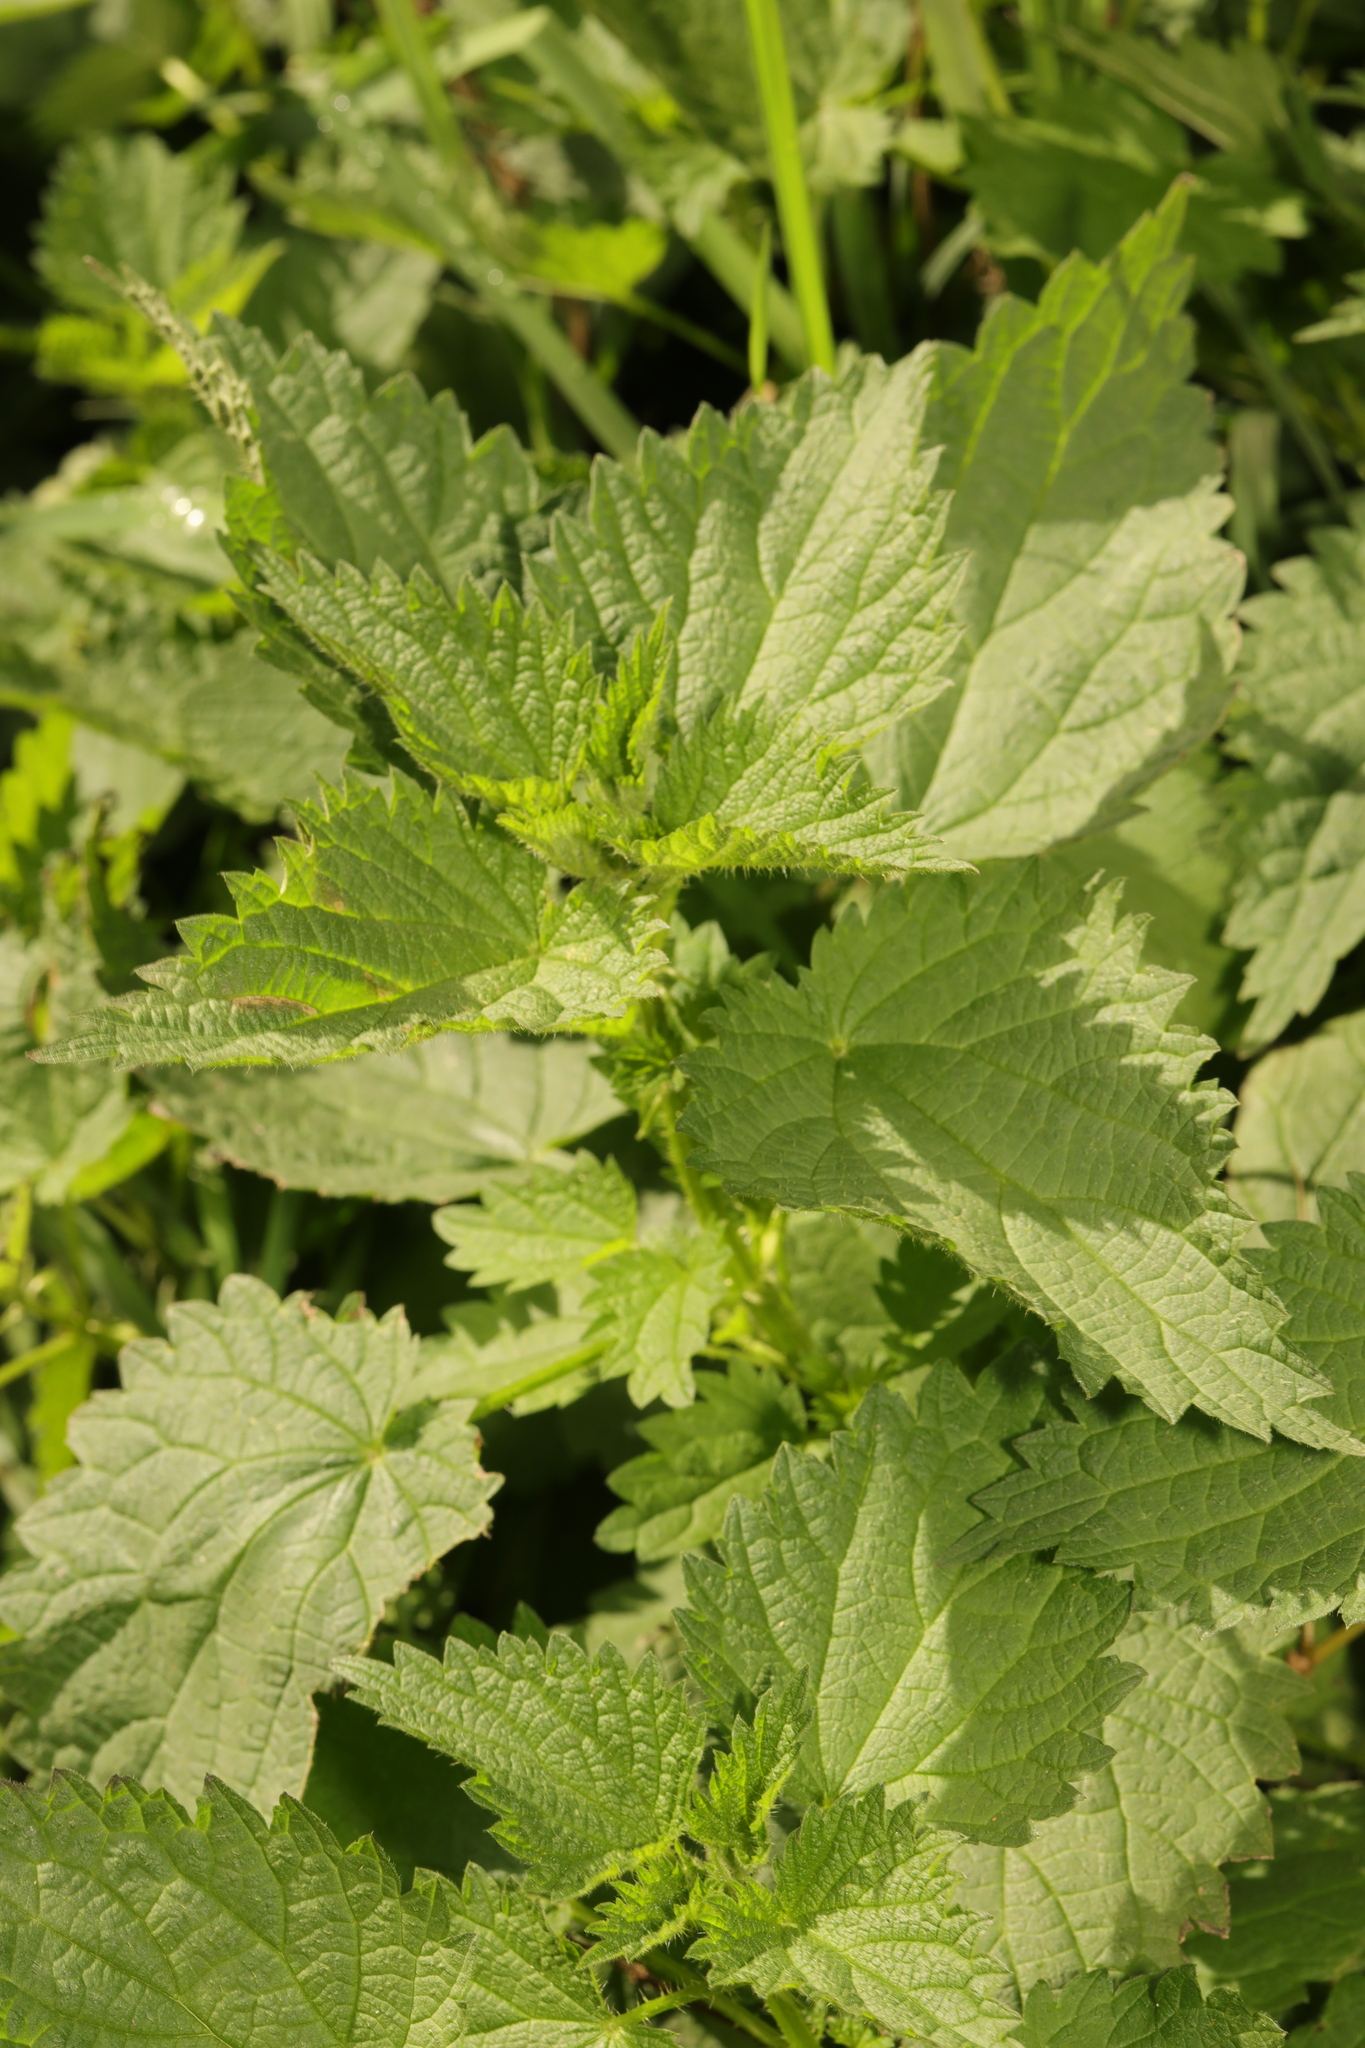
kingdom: Plantae
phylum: Tracheophyta
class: Magnoliopsida
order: Rosales
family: Urticaceae
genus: Urtica
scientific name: Urtica dioica
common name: Common nettle
